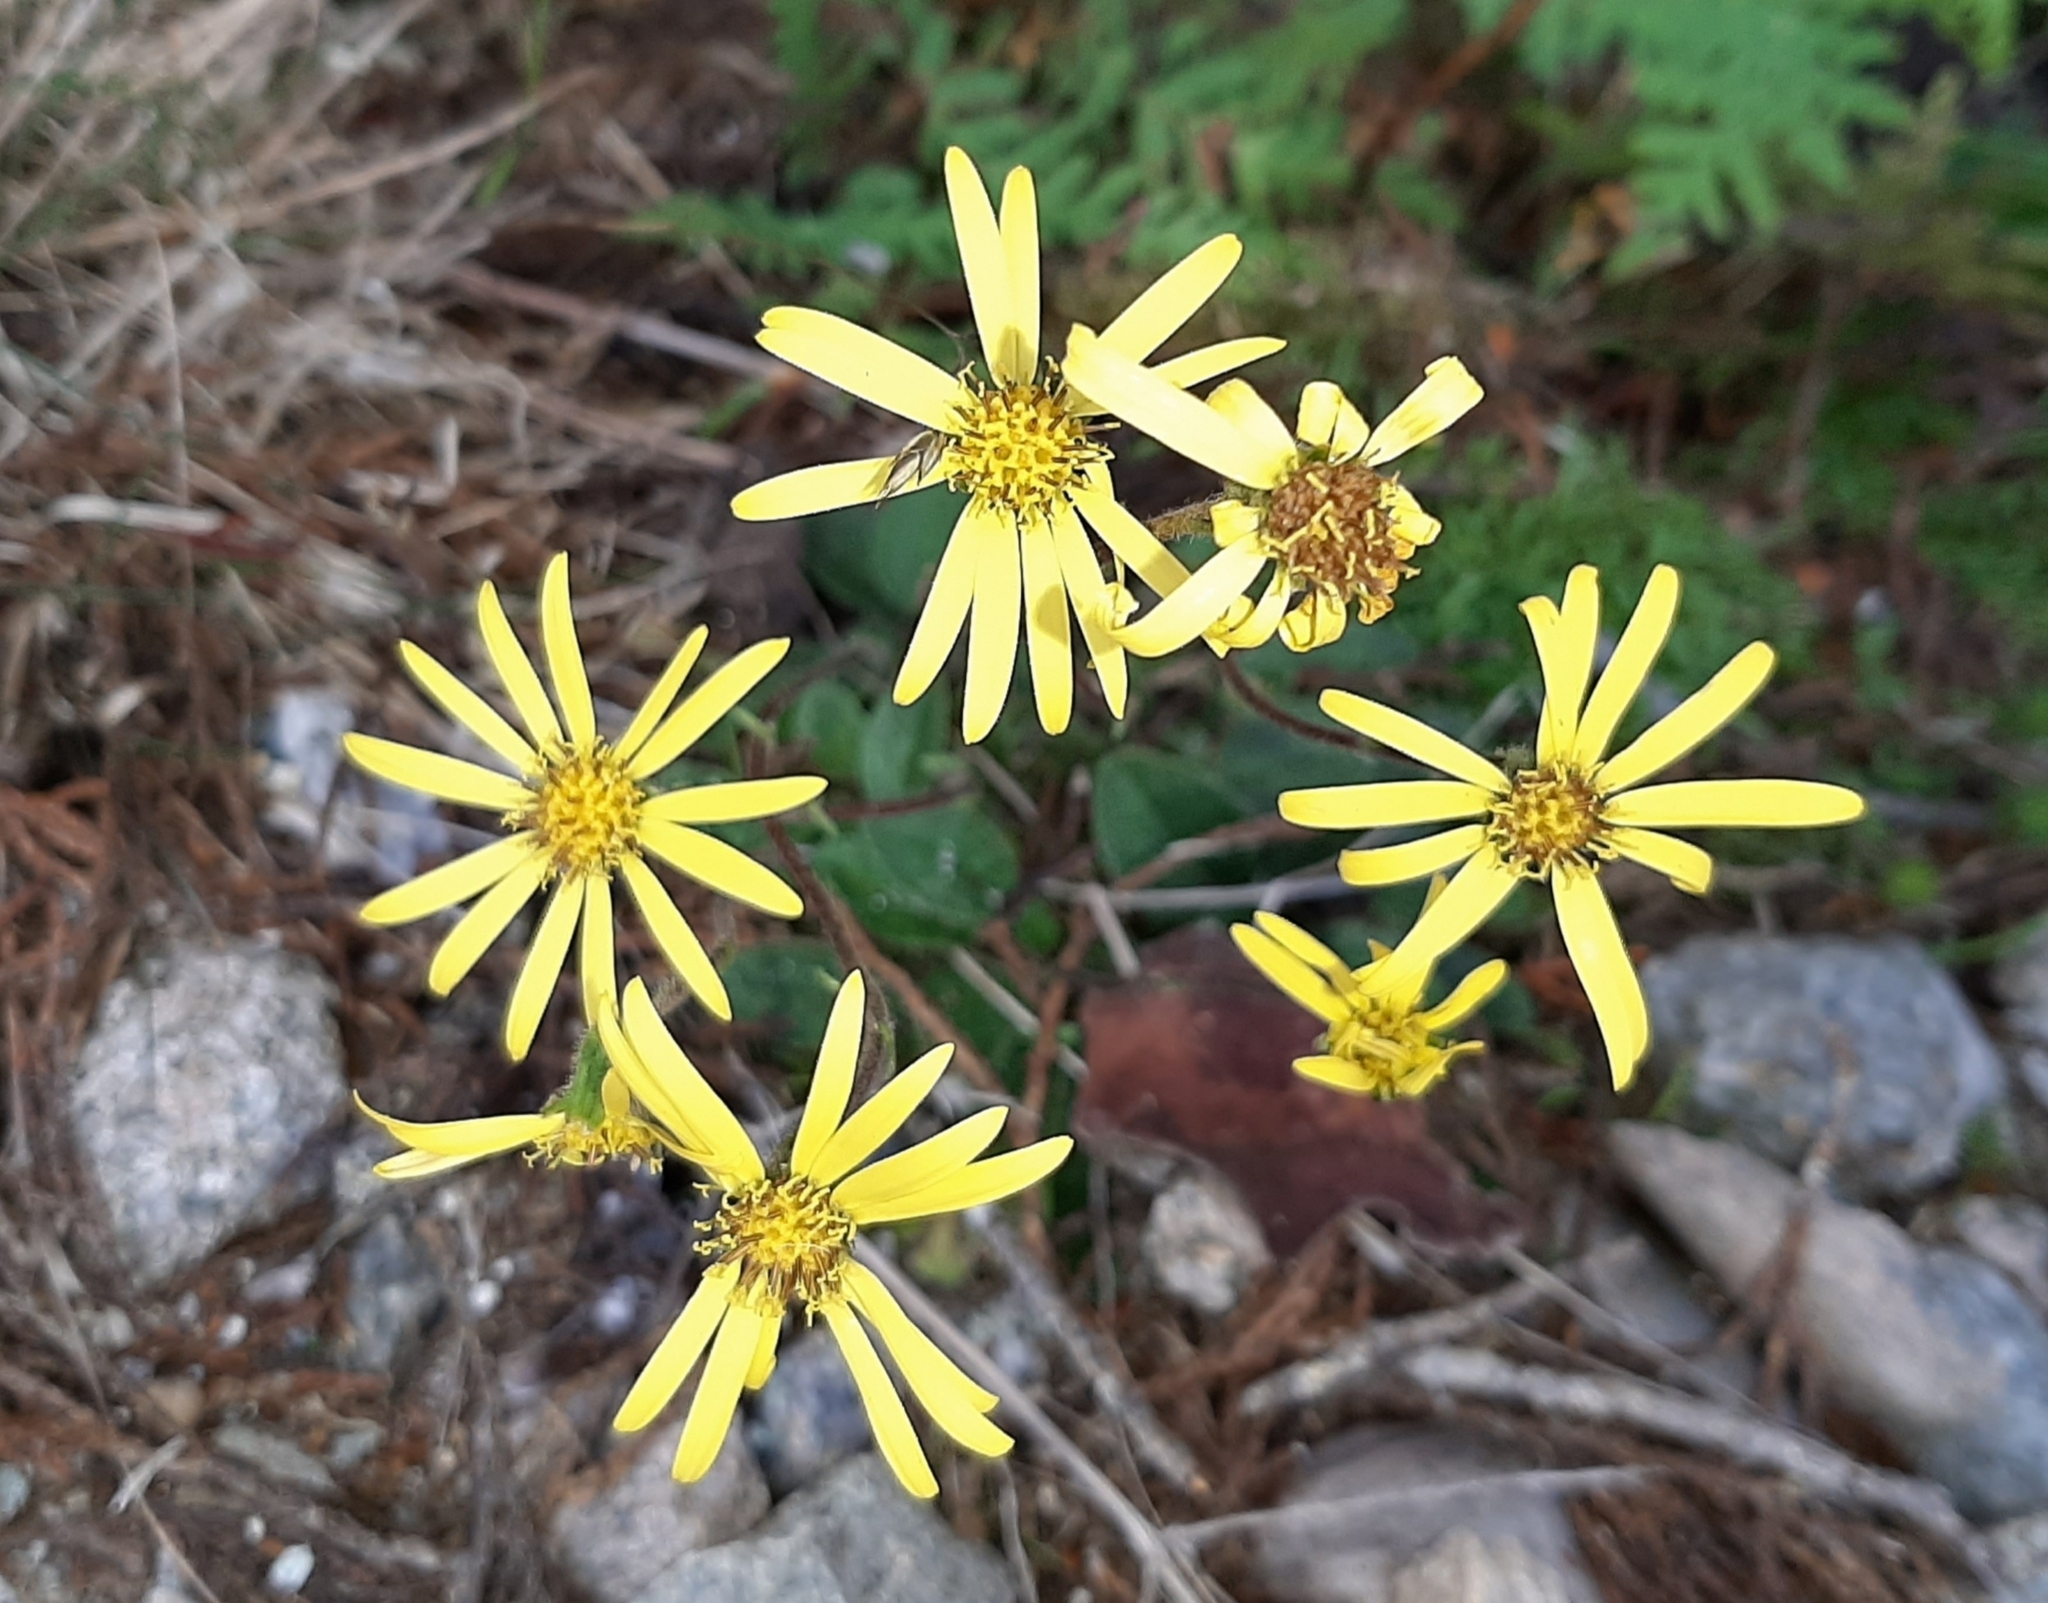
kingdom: Plantae
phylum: Tracheophyta
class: Magnoliopsida
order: Asterales
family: Asteraceae
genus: Brachyglottis
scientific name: Brachyglottis lagopus
